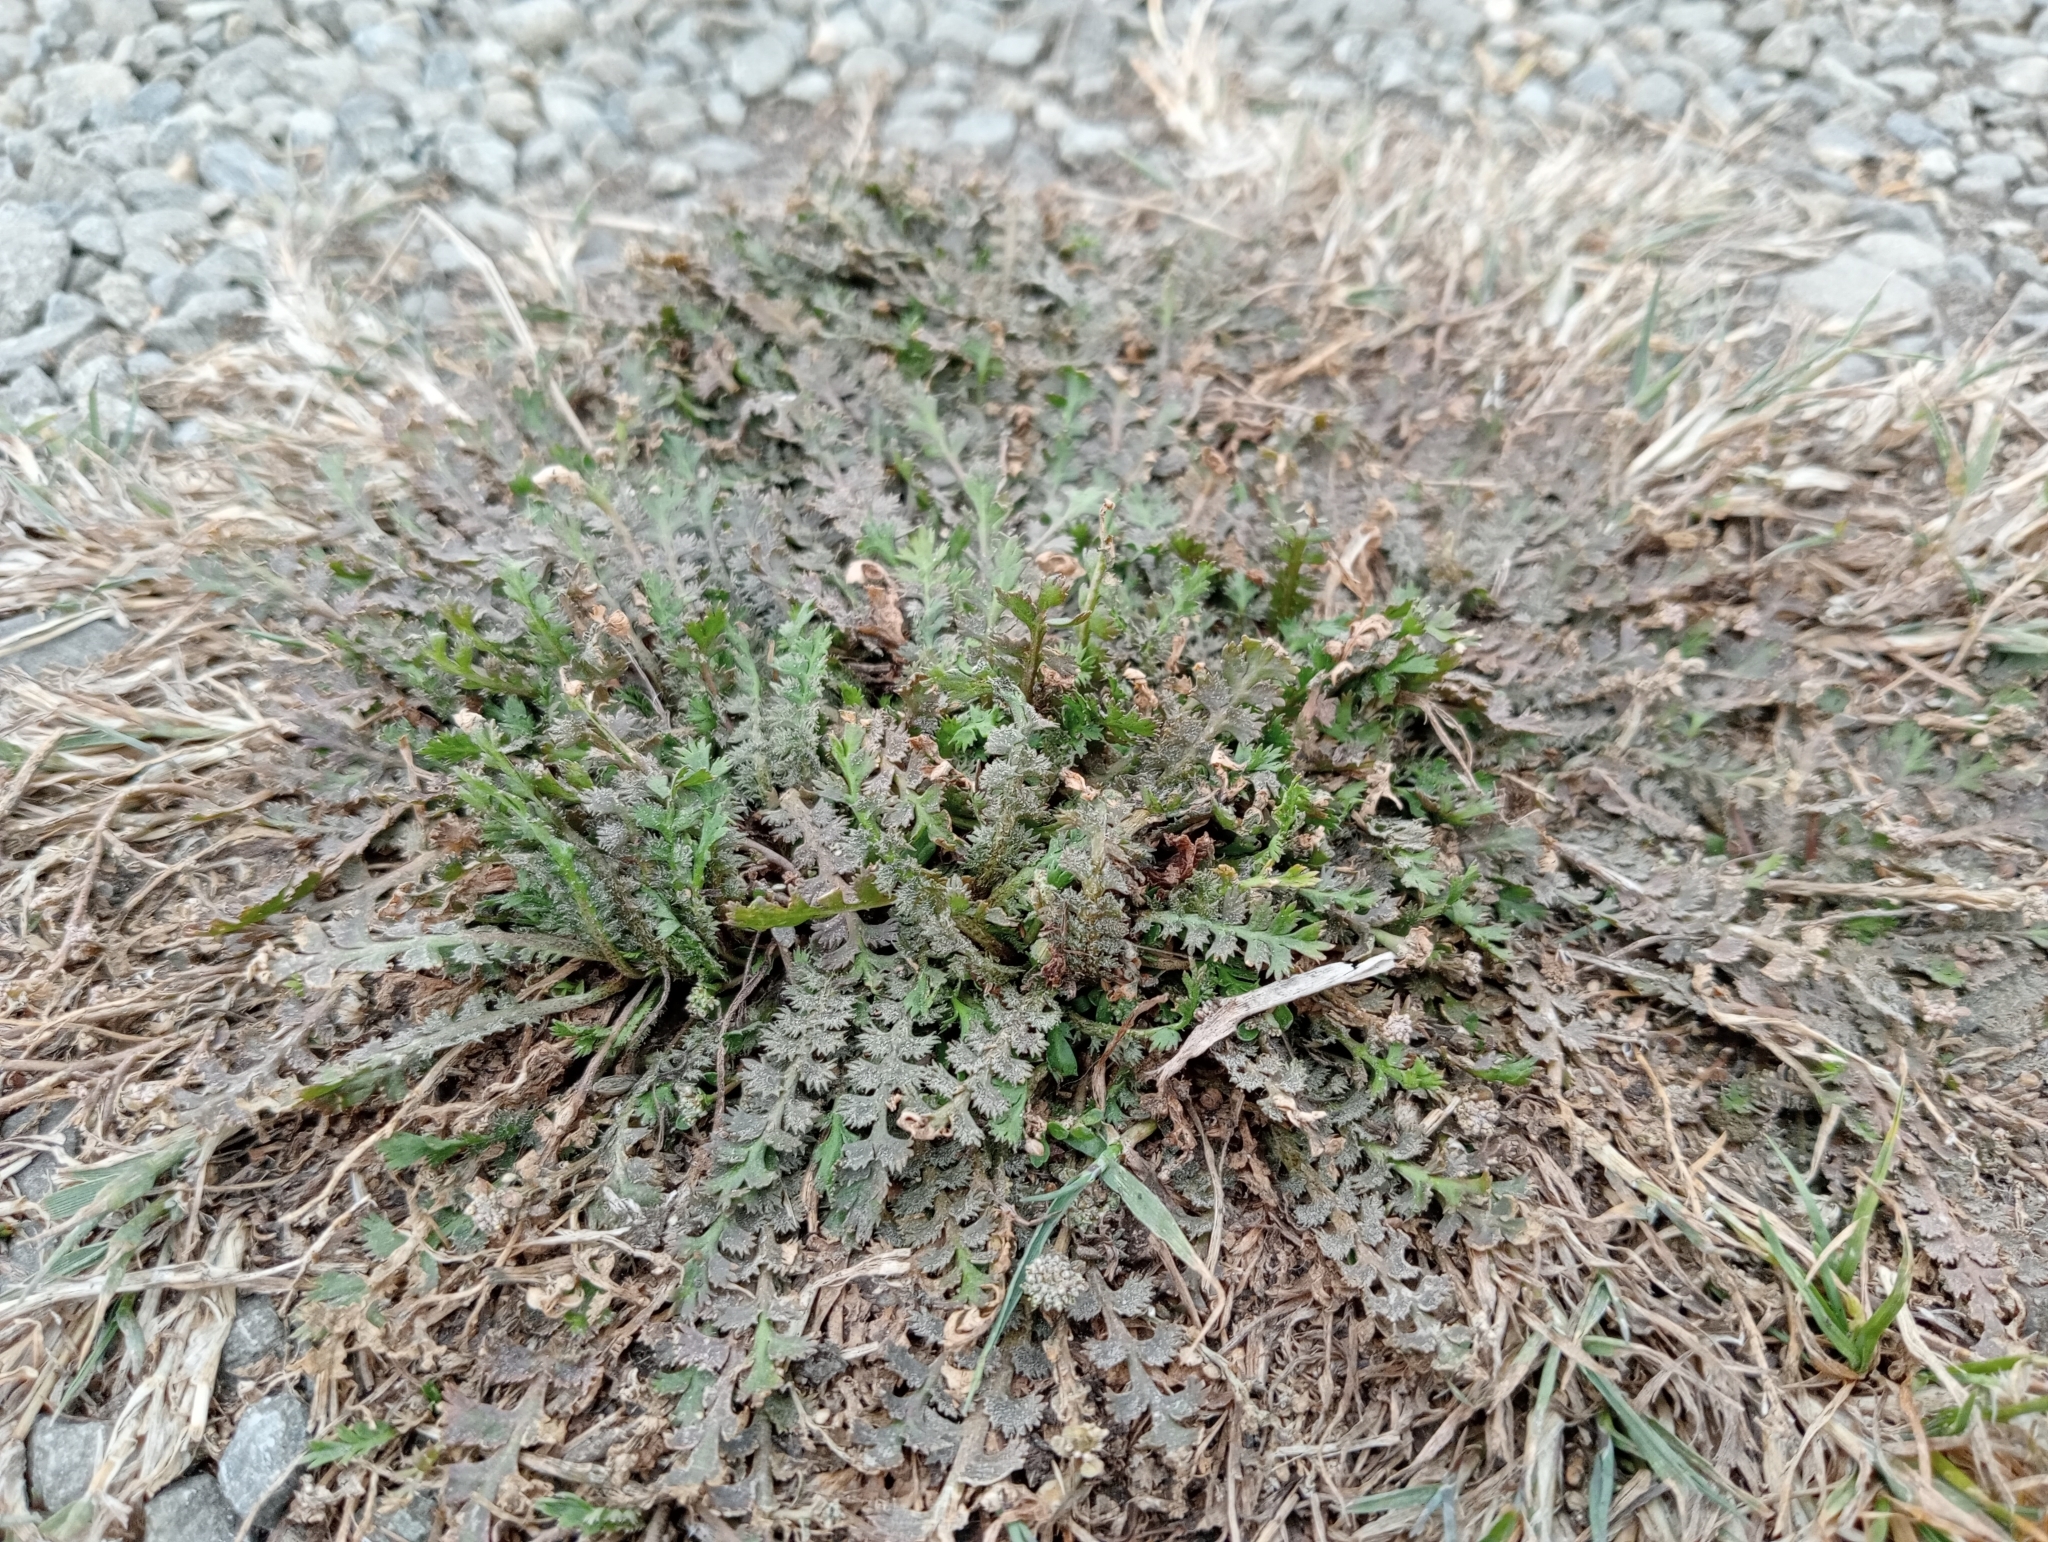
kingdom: Plantae
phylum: Tracheophyta
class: Magnoliopsida
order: Brassicales
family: Brassicaceae
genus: Lepidium
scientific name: Lepidium tenuicaule
